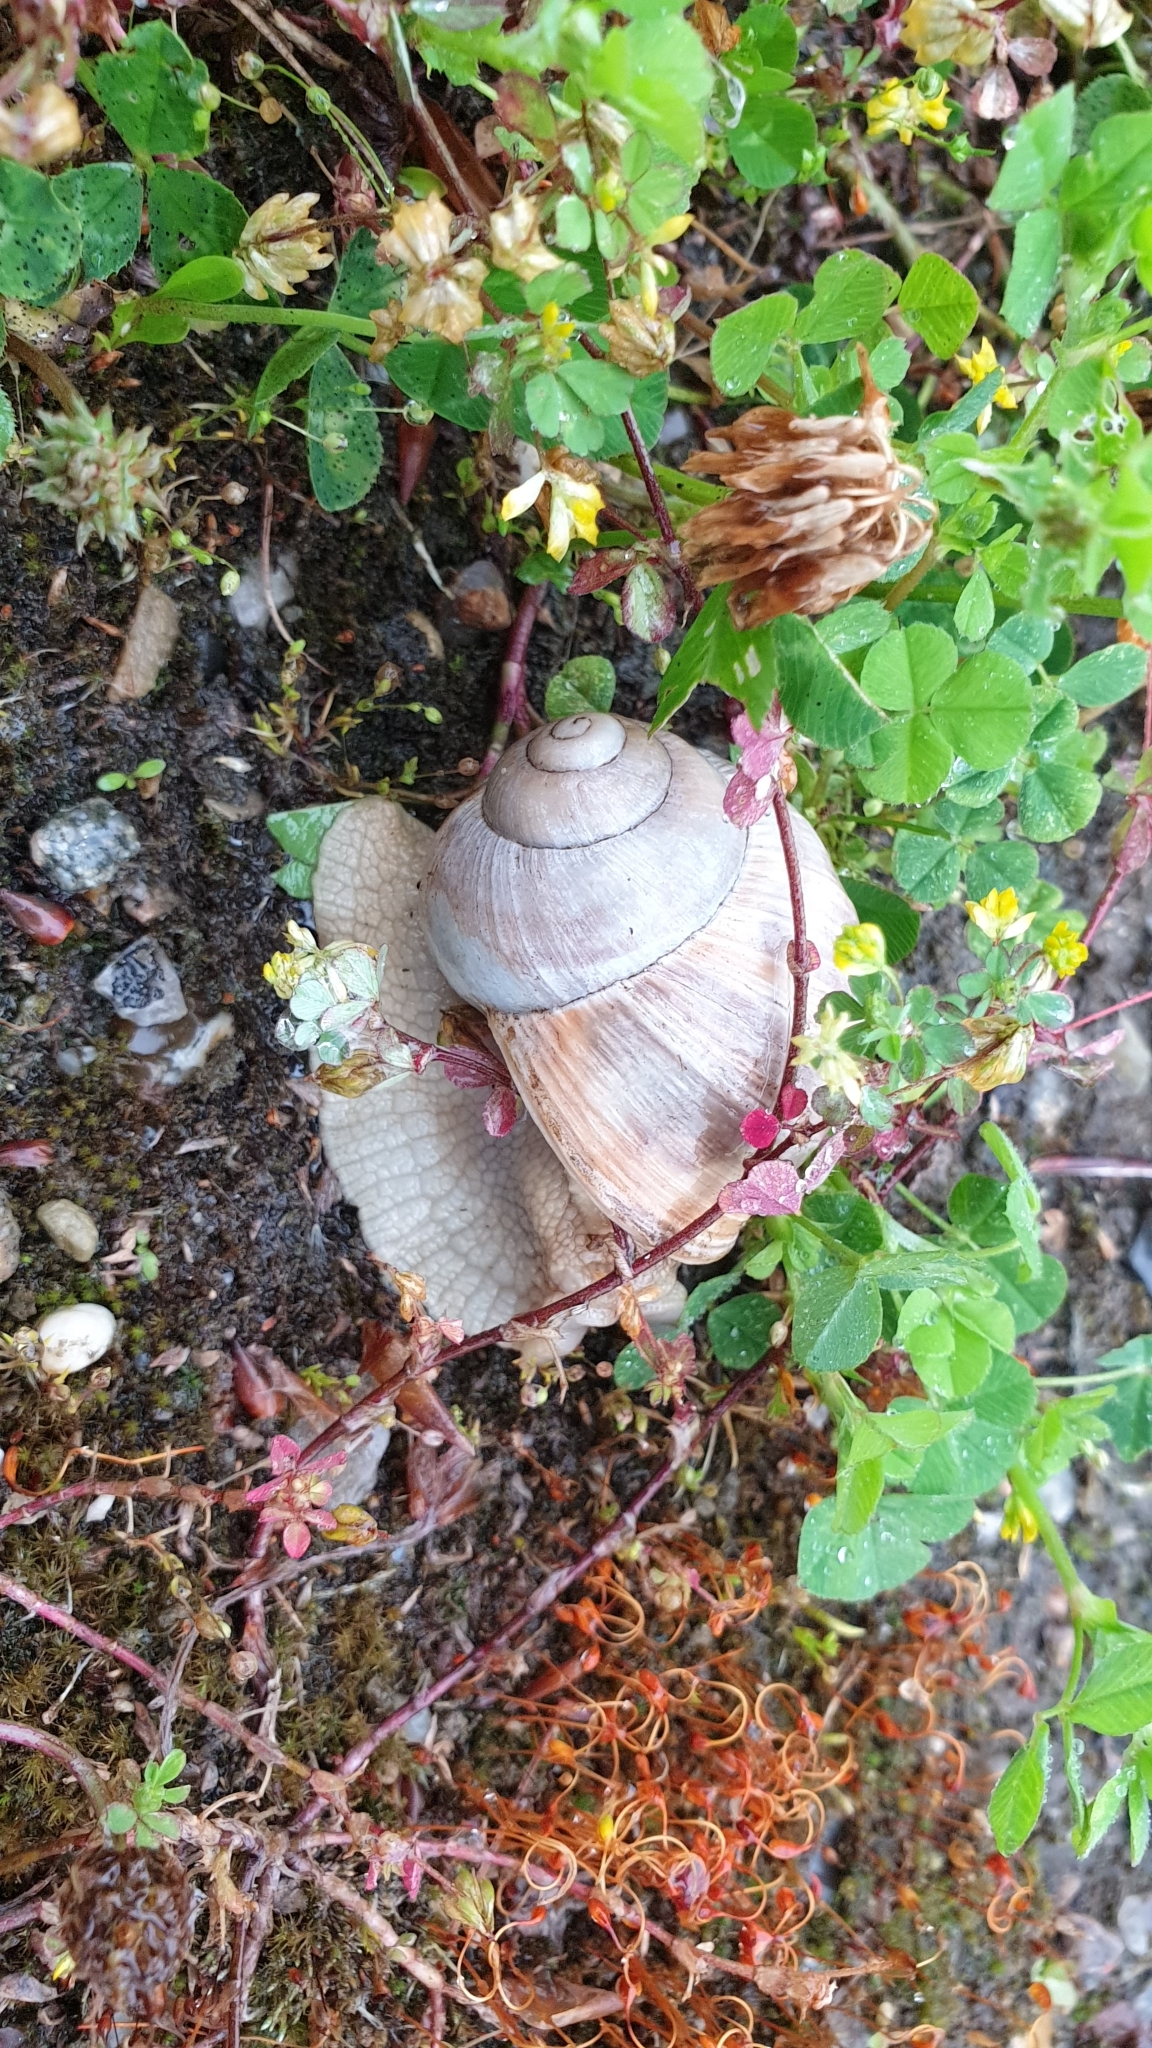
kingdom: Animalia
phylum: Mollusca
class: Gastropoda
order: Stylommatophora
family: Helicidae
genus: Helix
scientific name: Helix pomatia
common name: Roman snail
